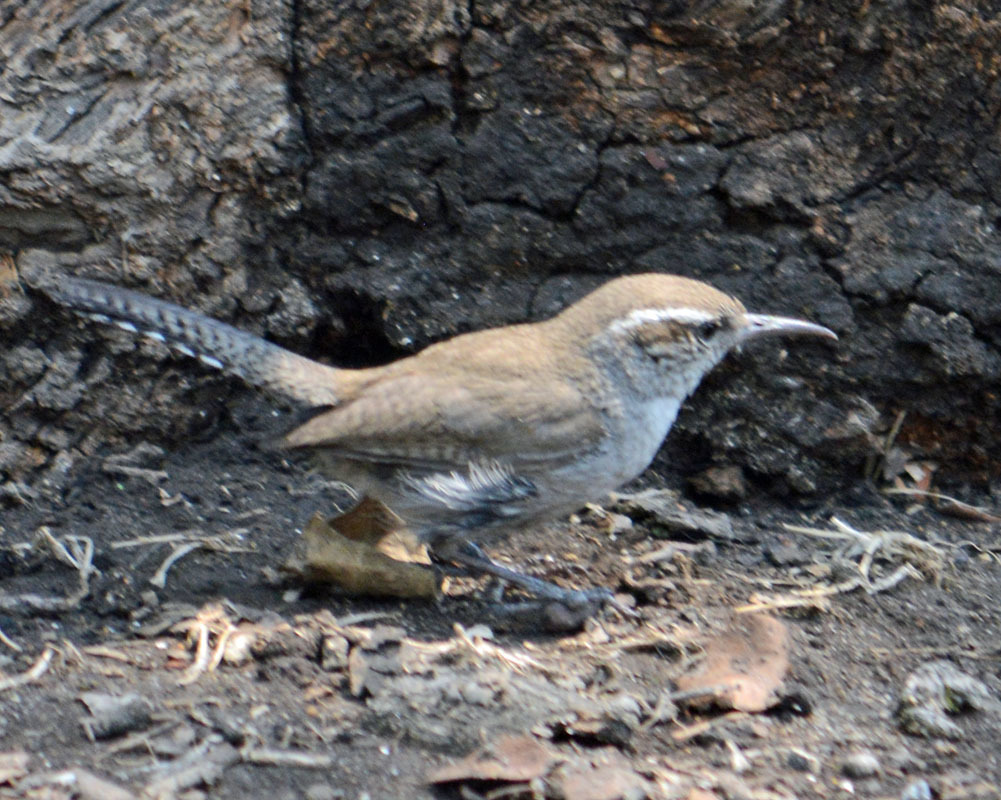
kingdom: Animalia
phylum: Chordata
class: Aves
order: Passeriformes
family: Troglodytidae
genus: Thryomanes
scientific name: Thryomanes bewickii
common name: Bewick's wren
